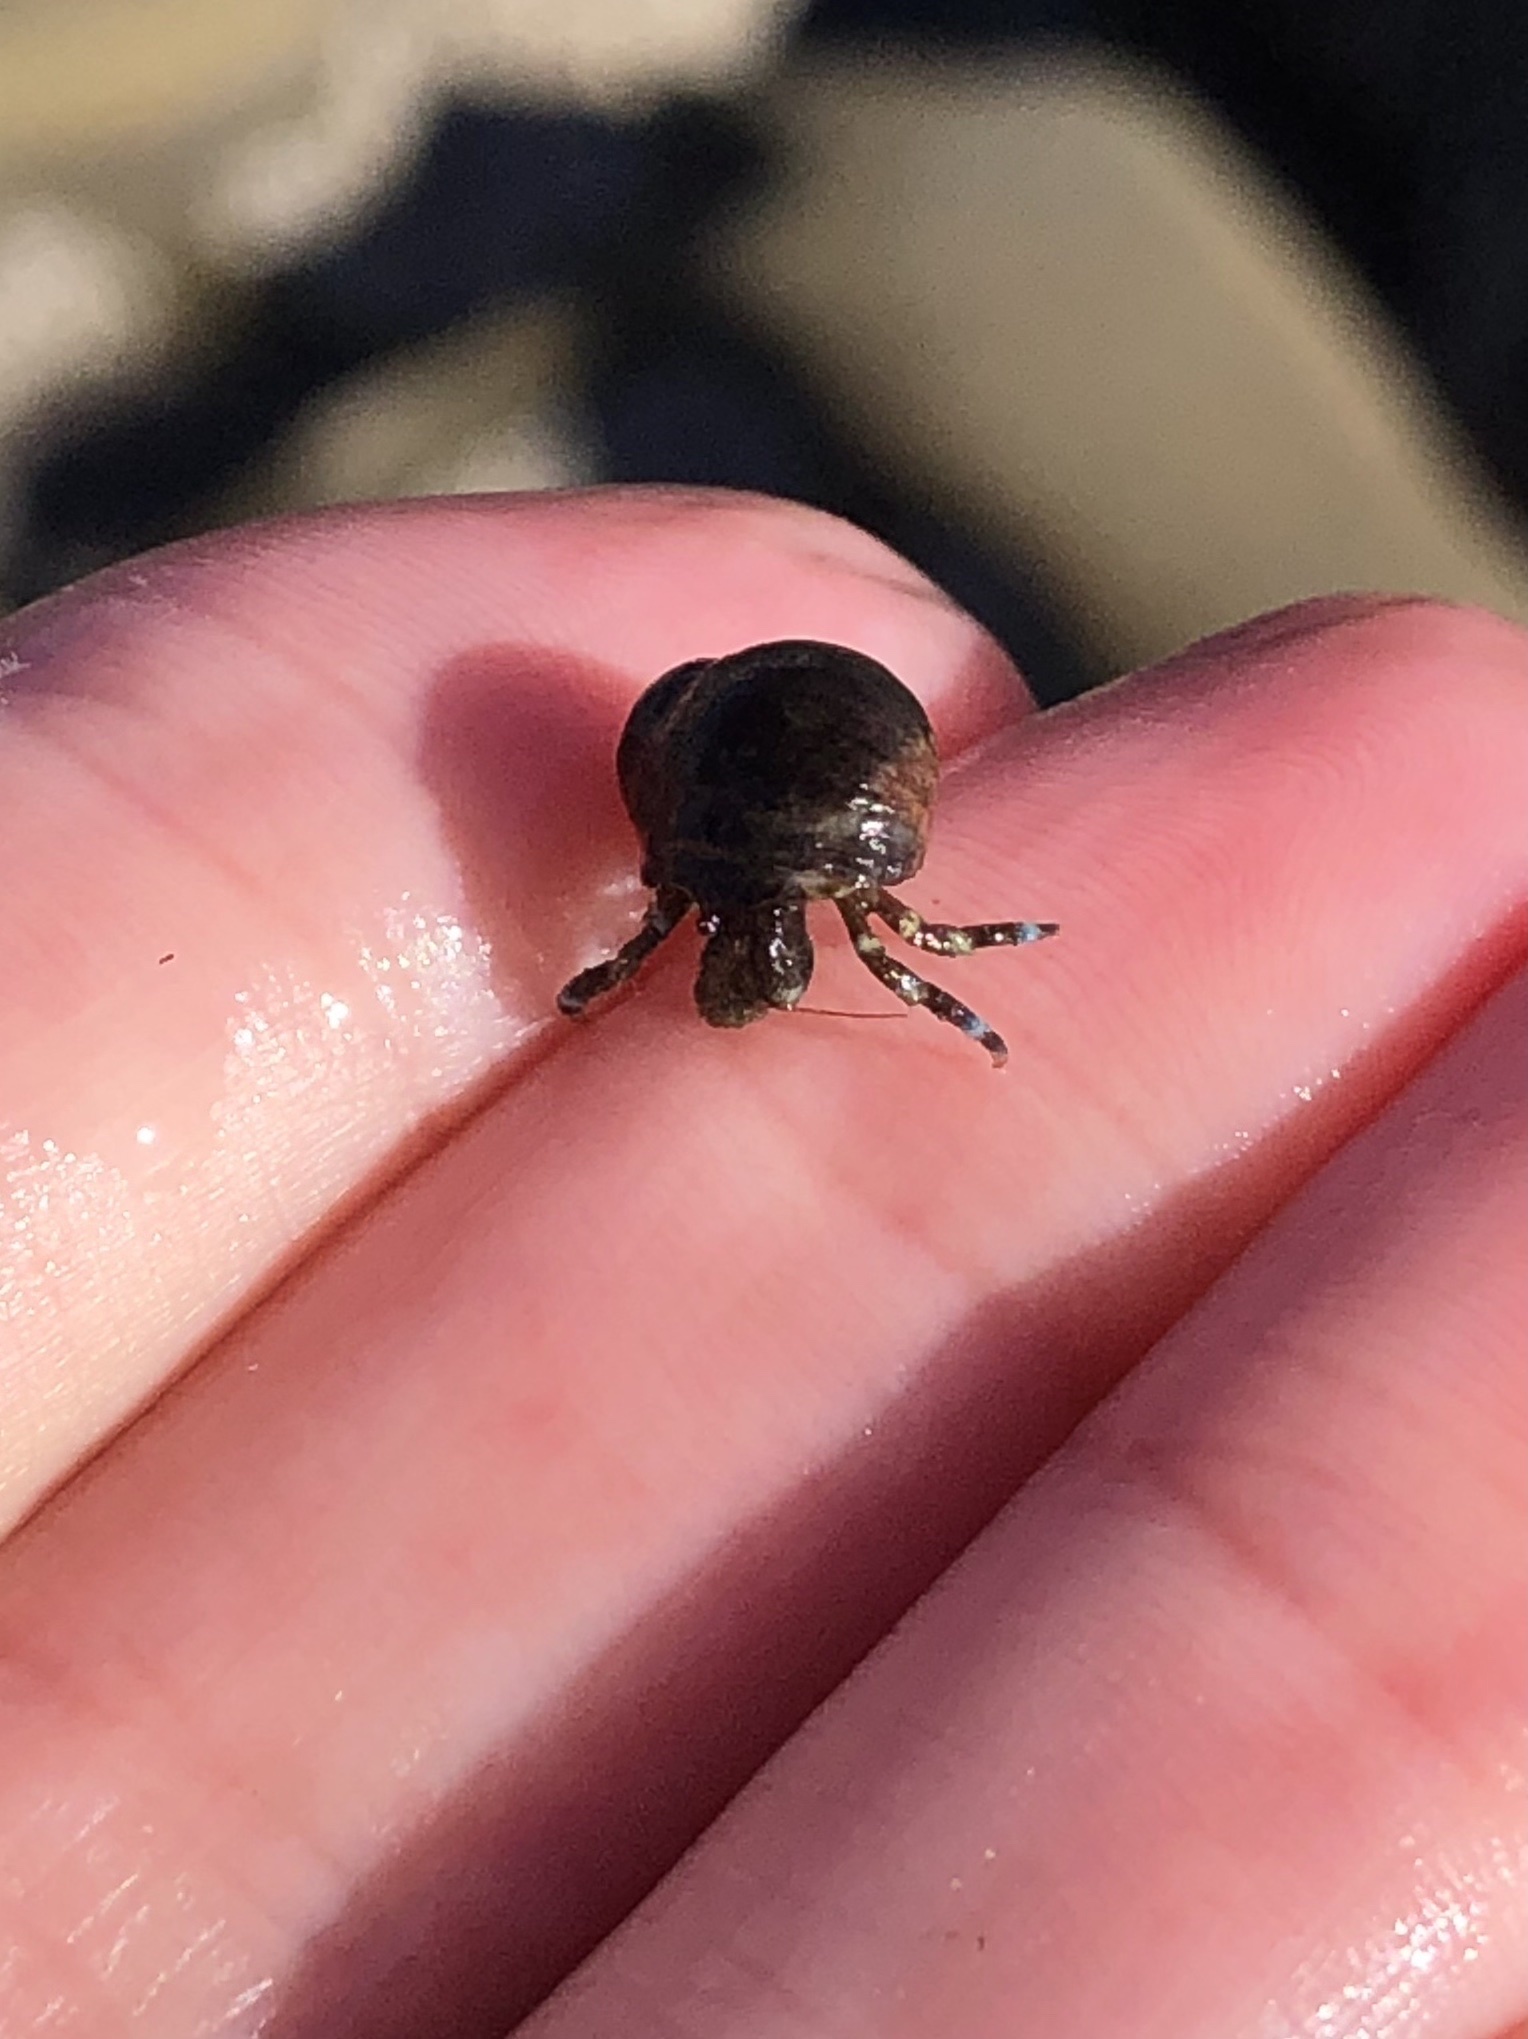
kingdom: Animalia
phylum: Arthropoda
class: Malacostraca
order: Decapoda
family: Paguridae
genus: Pagurus
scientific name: Pagurus samuelis
